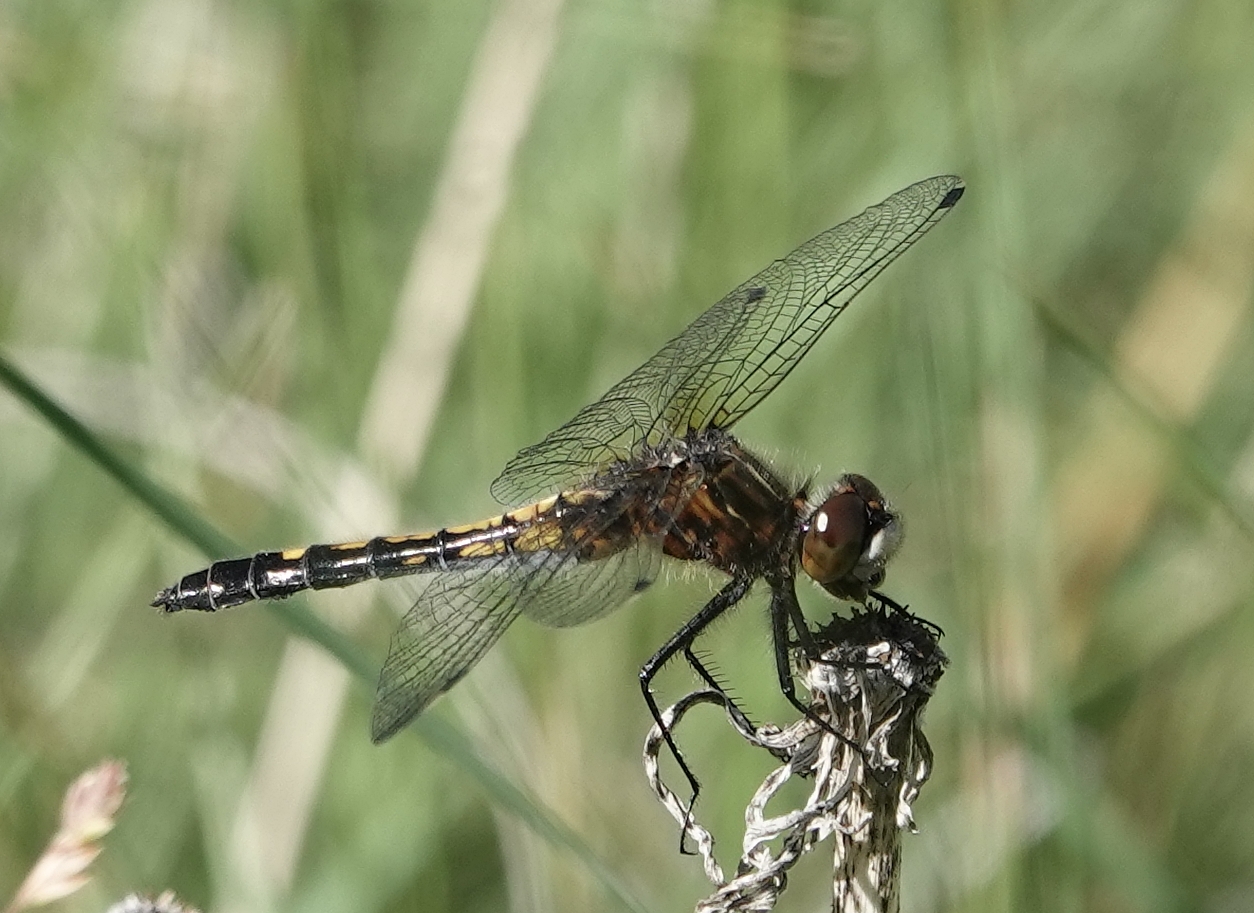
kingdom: Animalia
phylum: Arthropoda
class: Insecta
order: Odonata
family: Libellulidae
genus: Leucorrhinia
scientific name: Leucorrhinia intacta
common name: Dot-tailed whiteface
